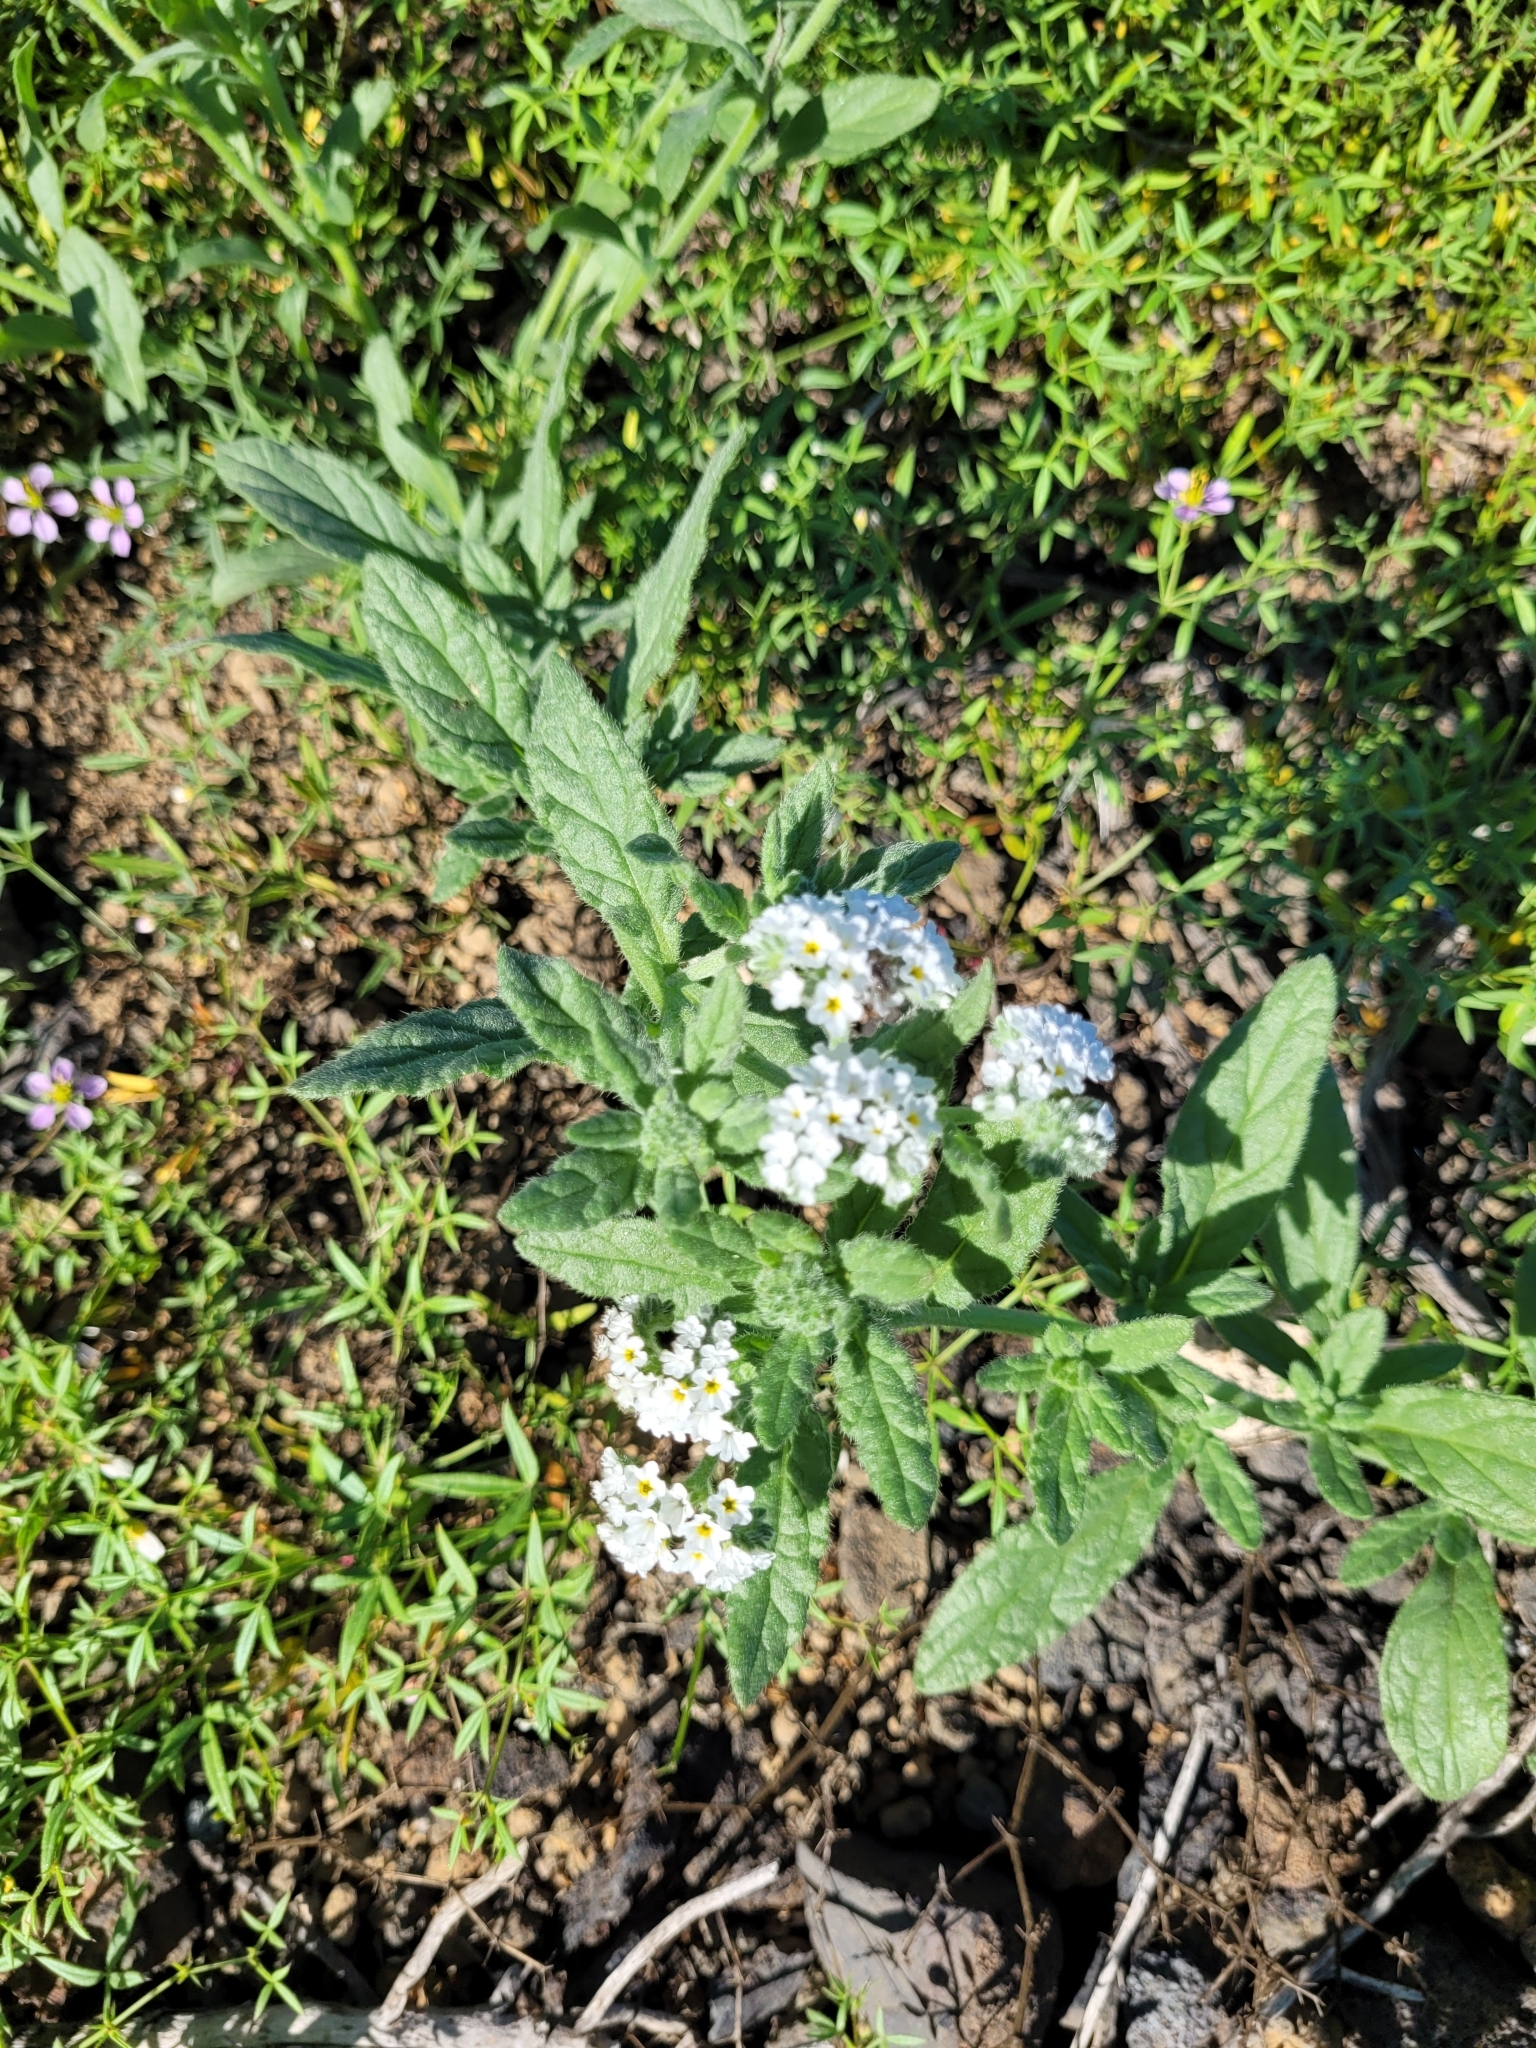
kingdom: Plantae
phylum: Tracheophyta
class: Magnoliopsida
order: Boraginales
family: Heliotropiaceae
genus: Heliotropium
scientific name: Heliotropium ramosissimum
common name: Wavy heliotrope
